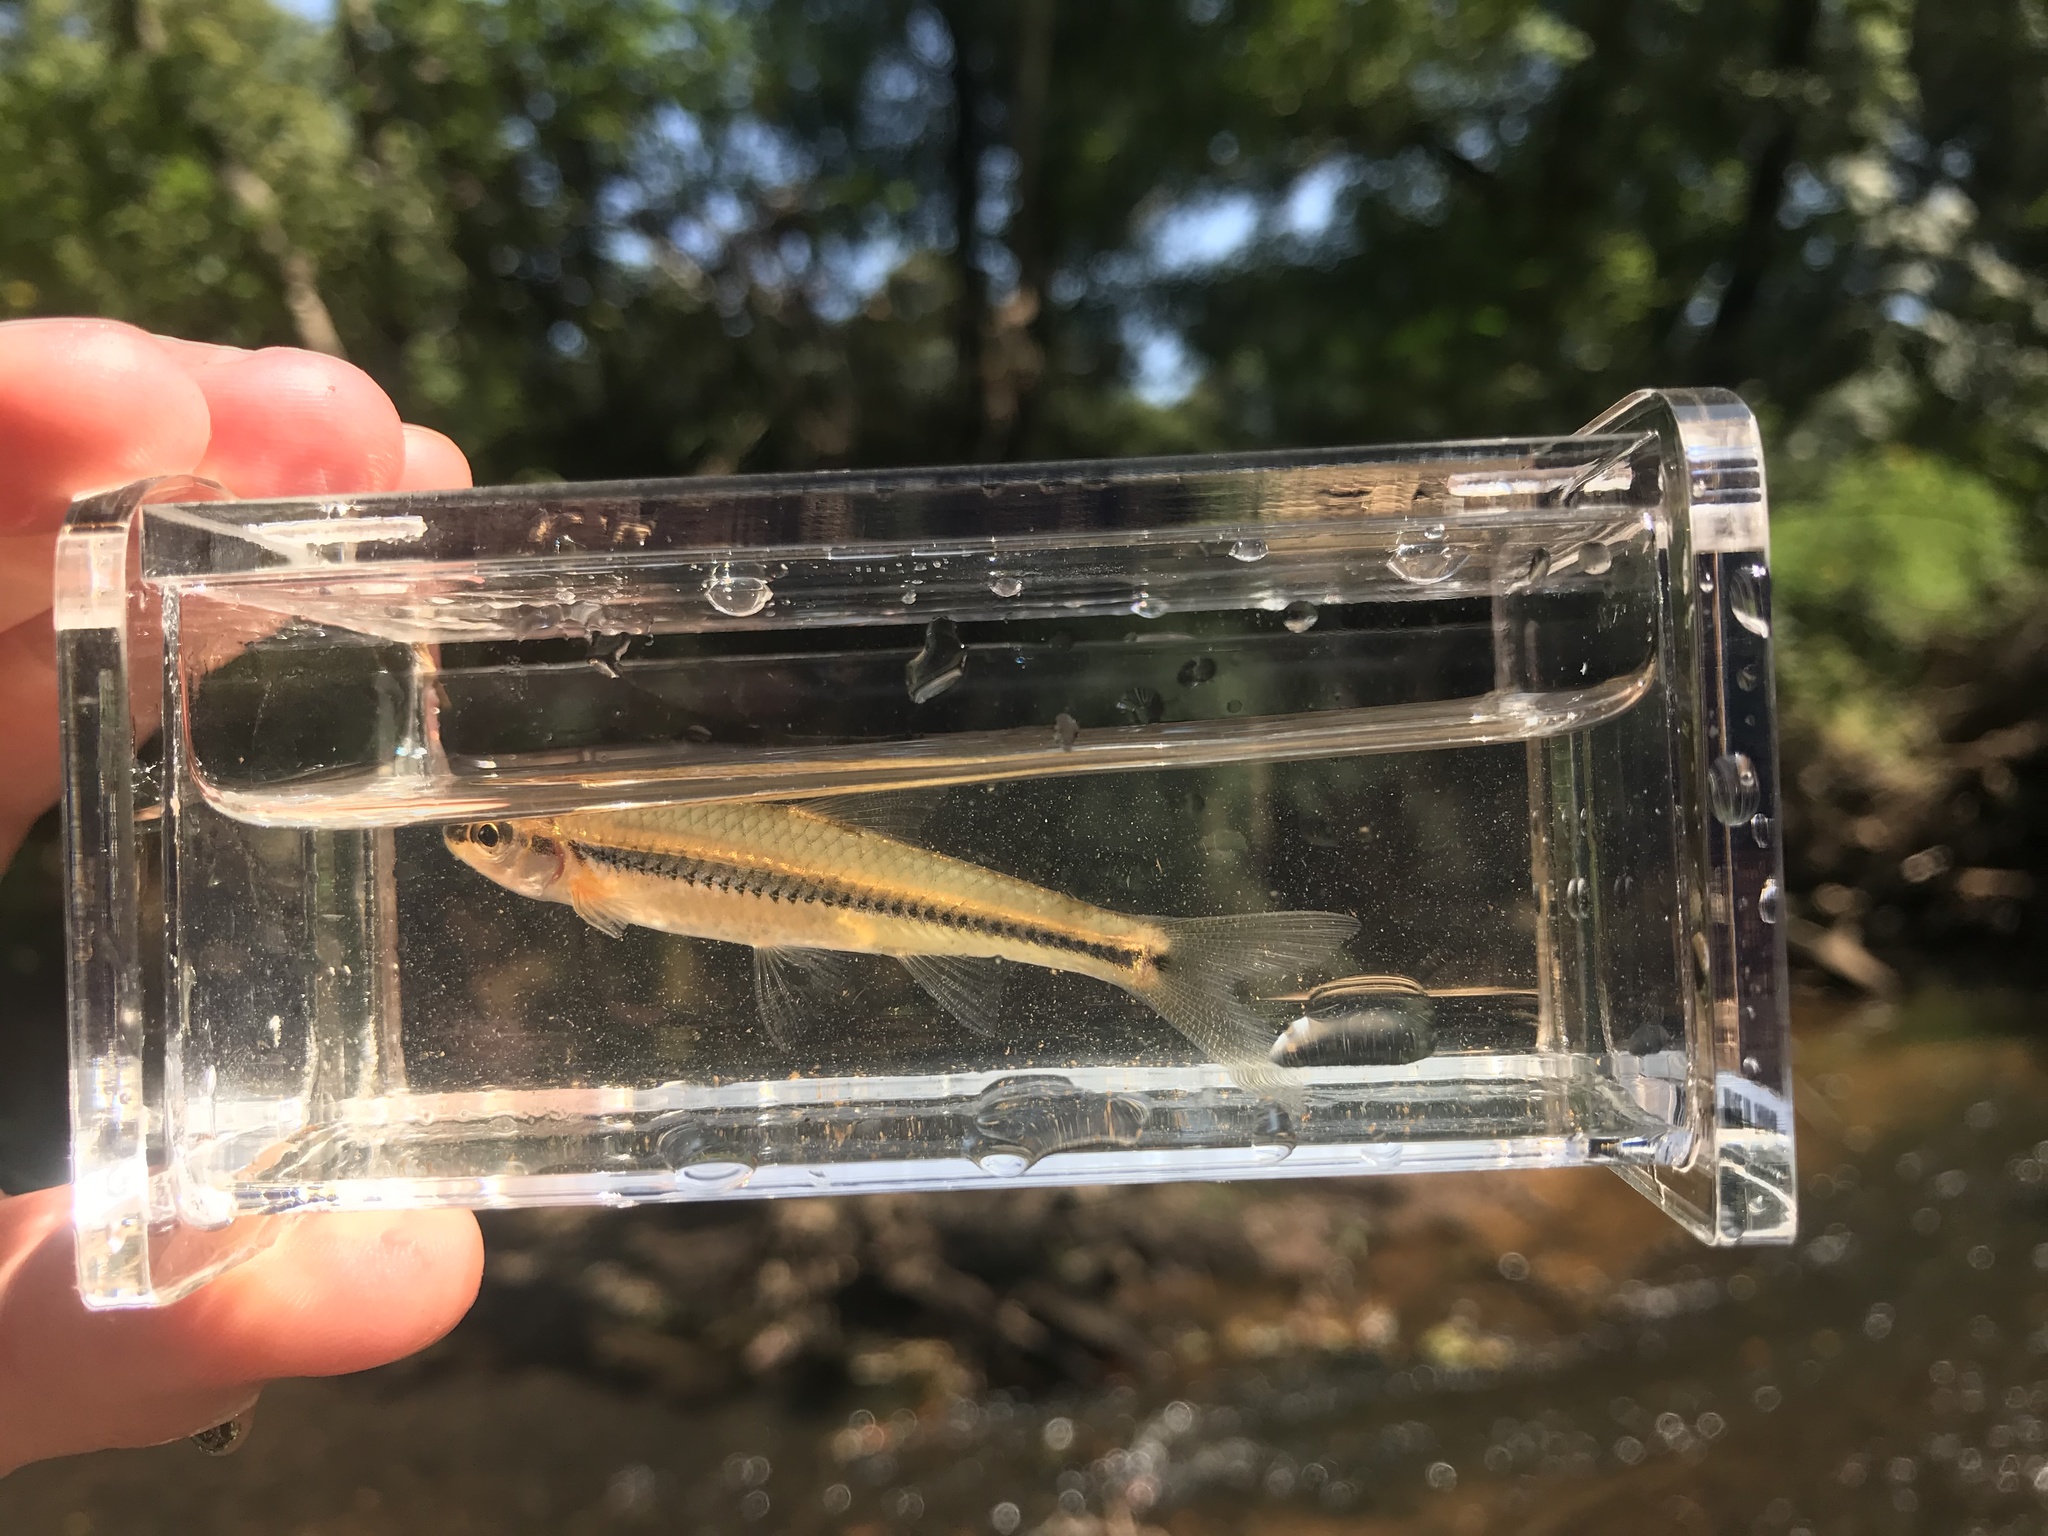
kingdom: Animalia
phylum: Chordata
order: Cypriniformes
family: Cyprinidae
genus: Notropis
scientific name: Notropis
